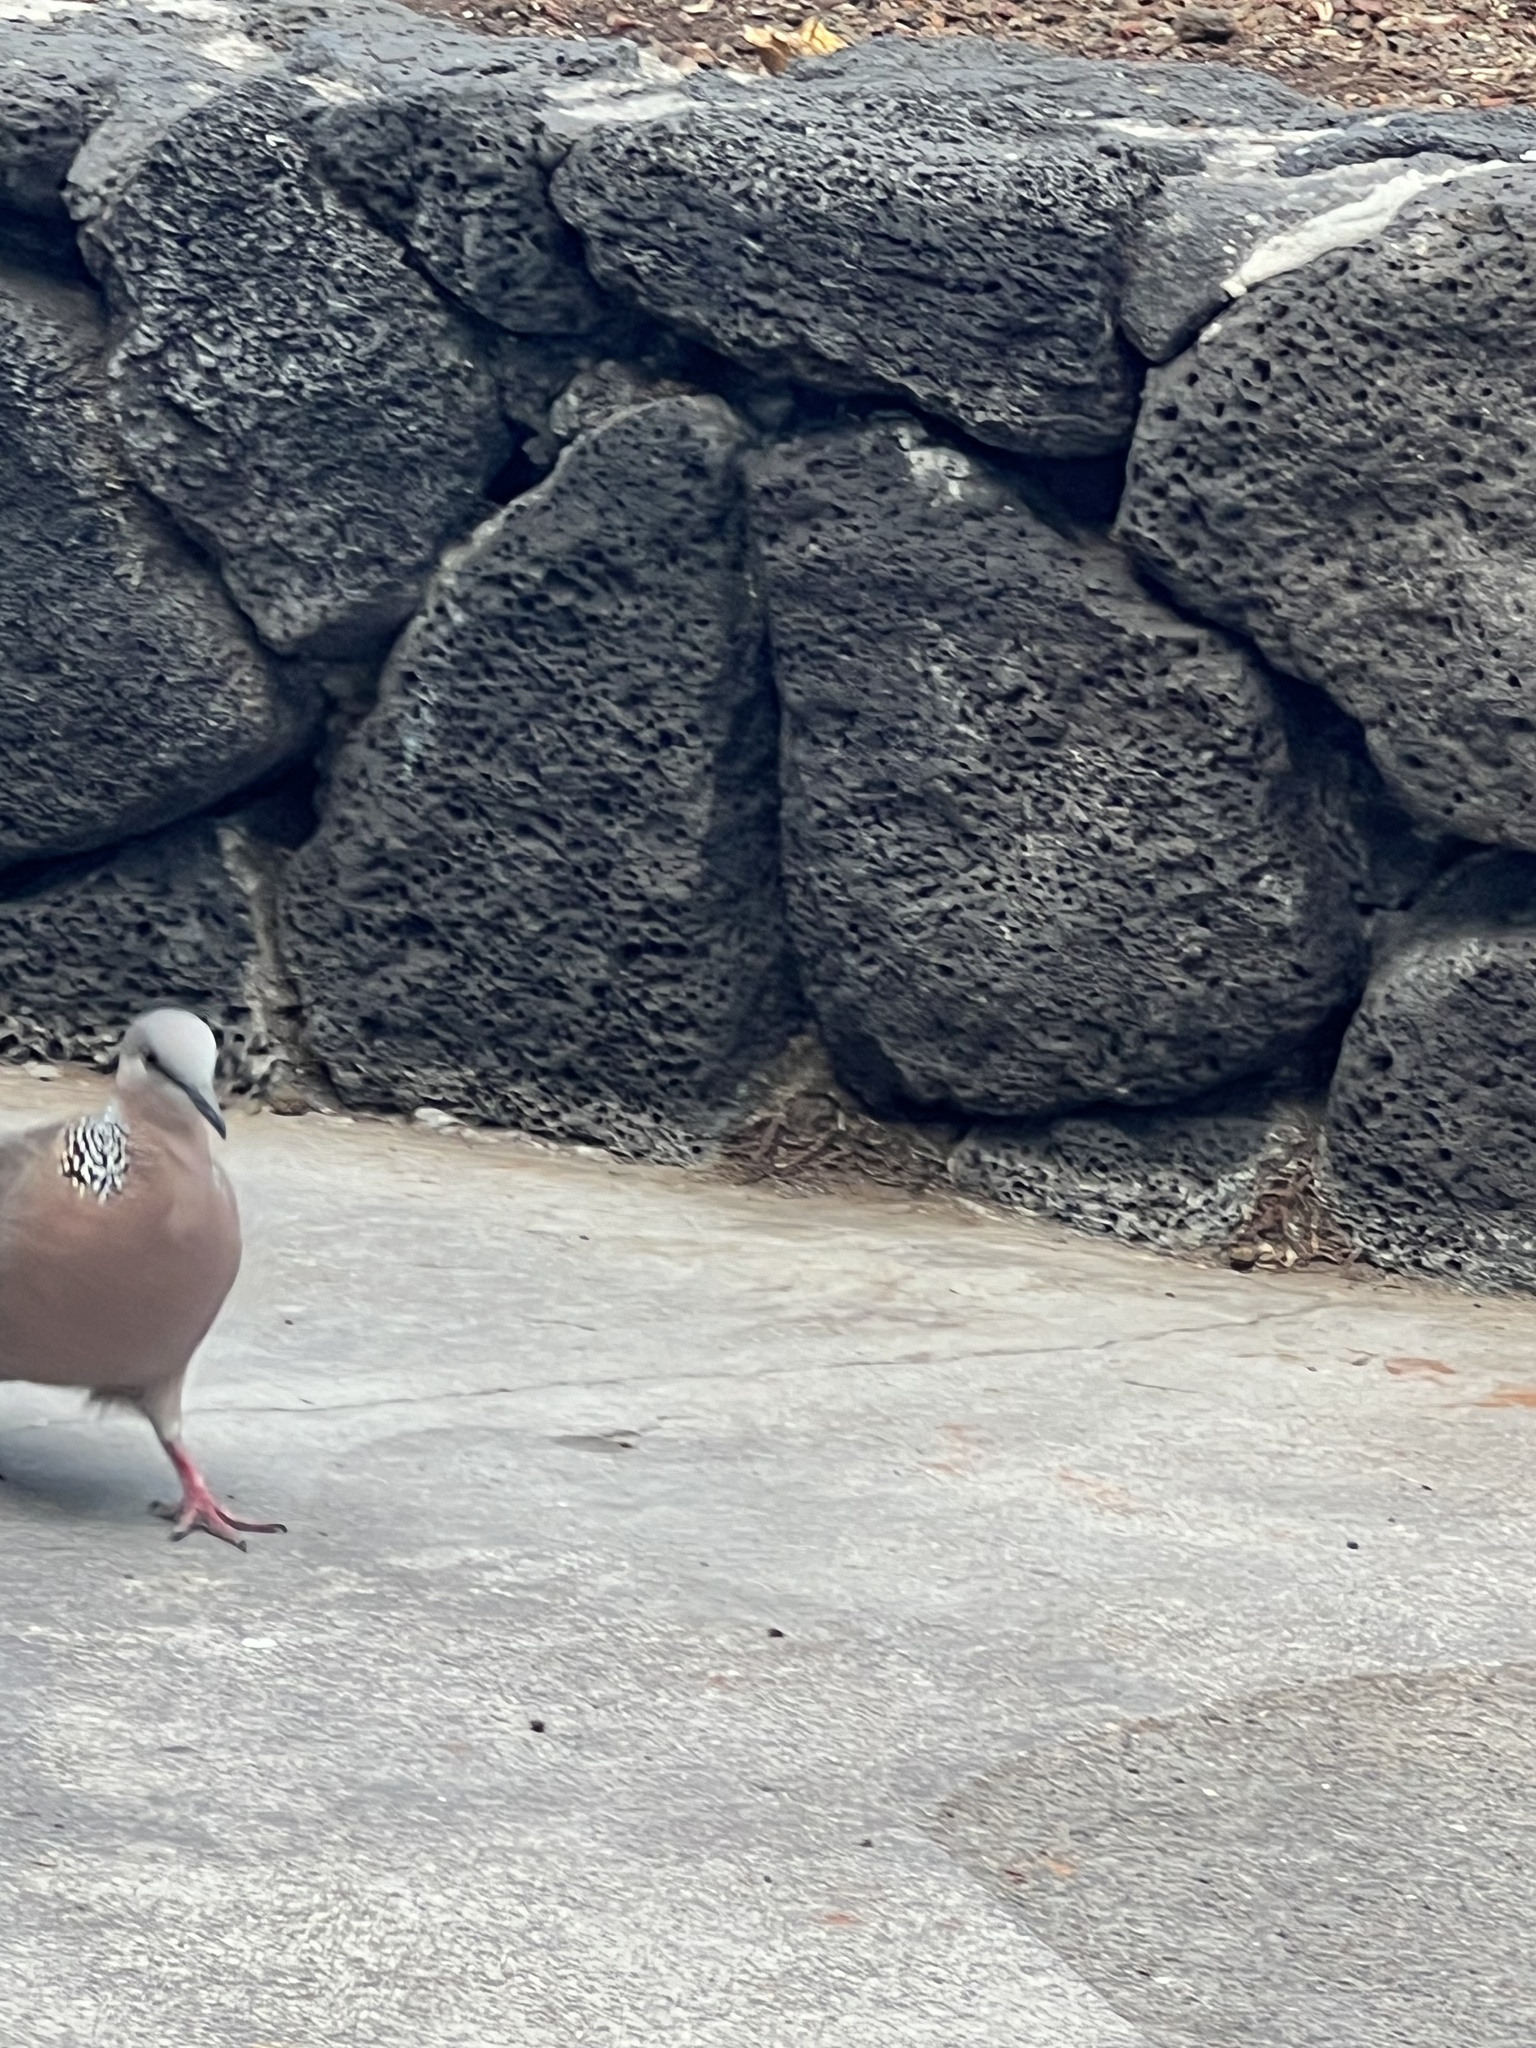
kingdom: Animalia
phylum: Chordata
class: Aves
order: Columbiformes
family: Columbidae
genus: Spilopelia
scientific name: Spilopelia chinensis
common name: Spotted dove
